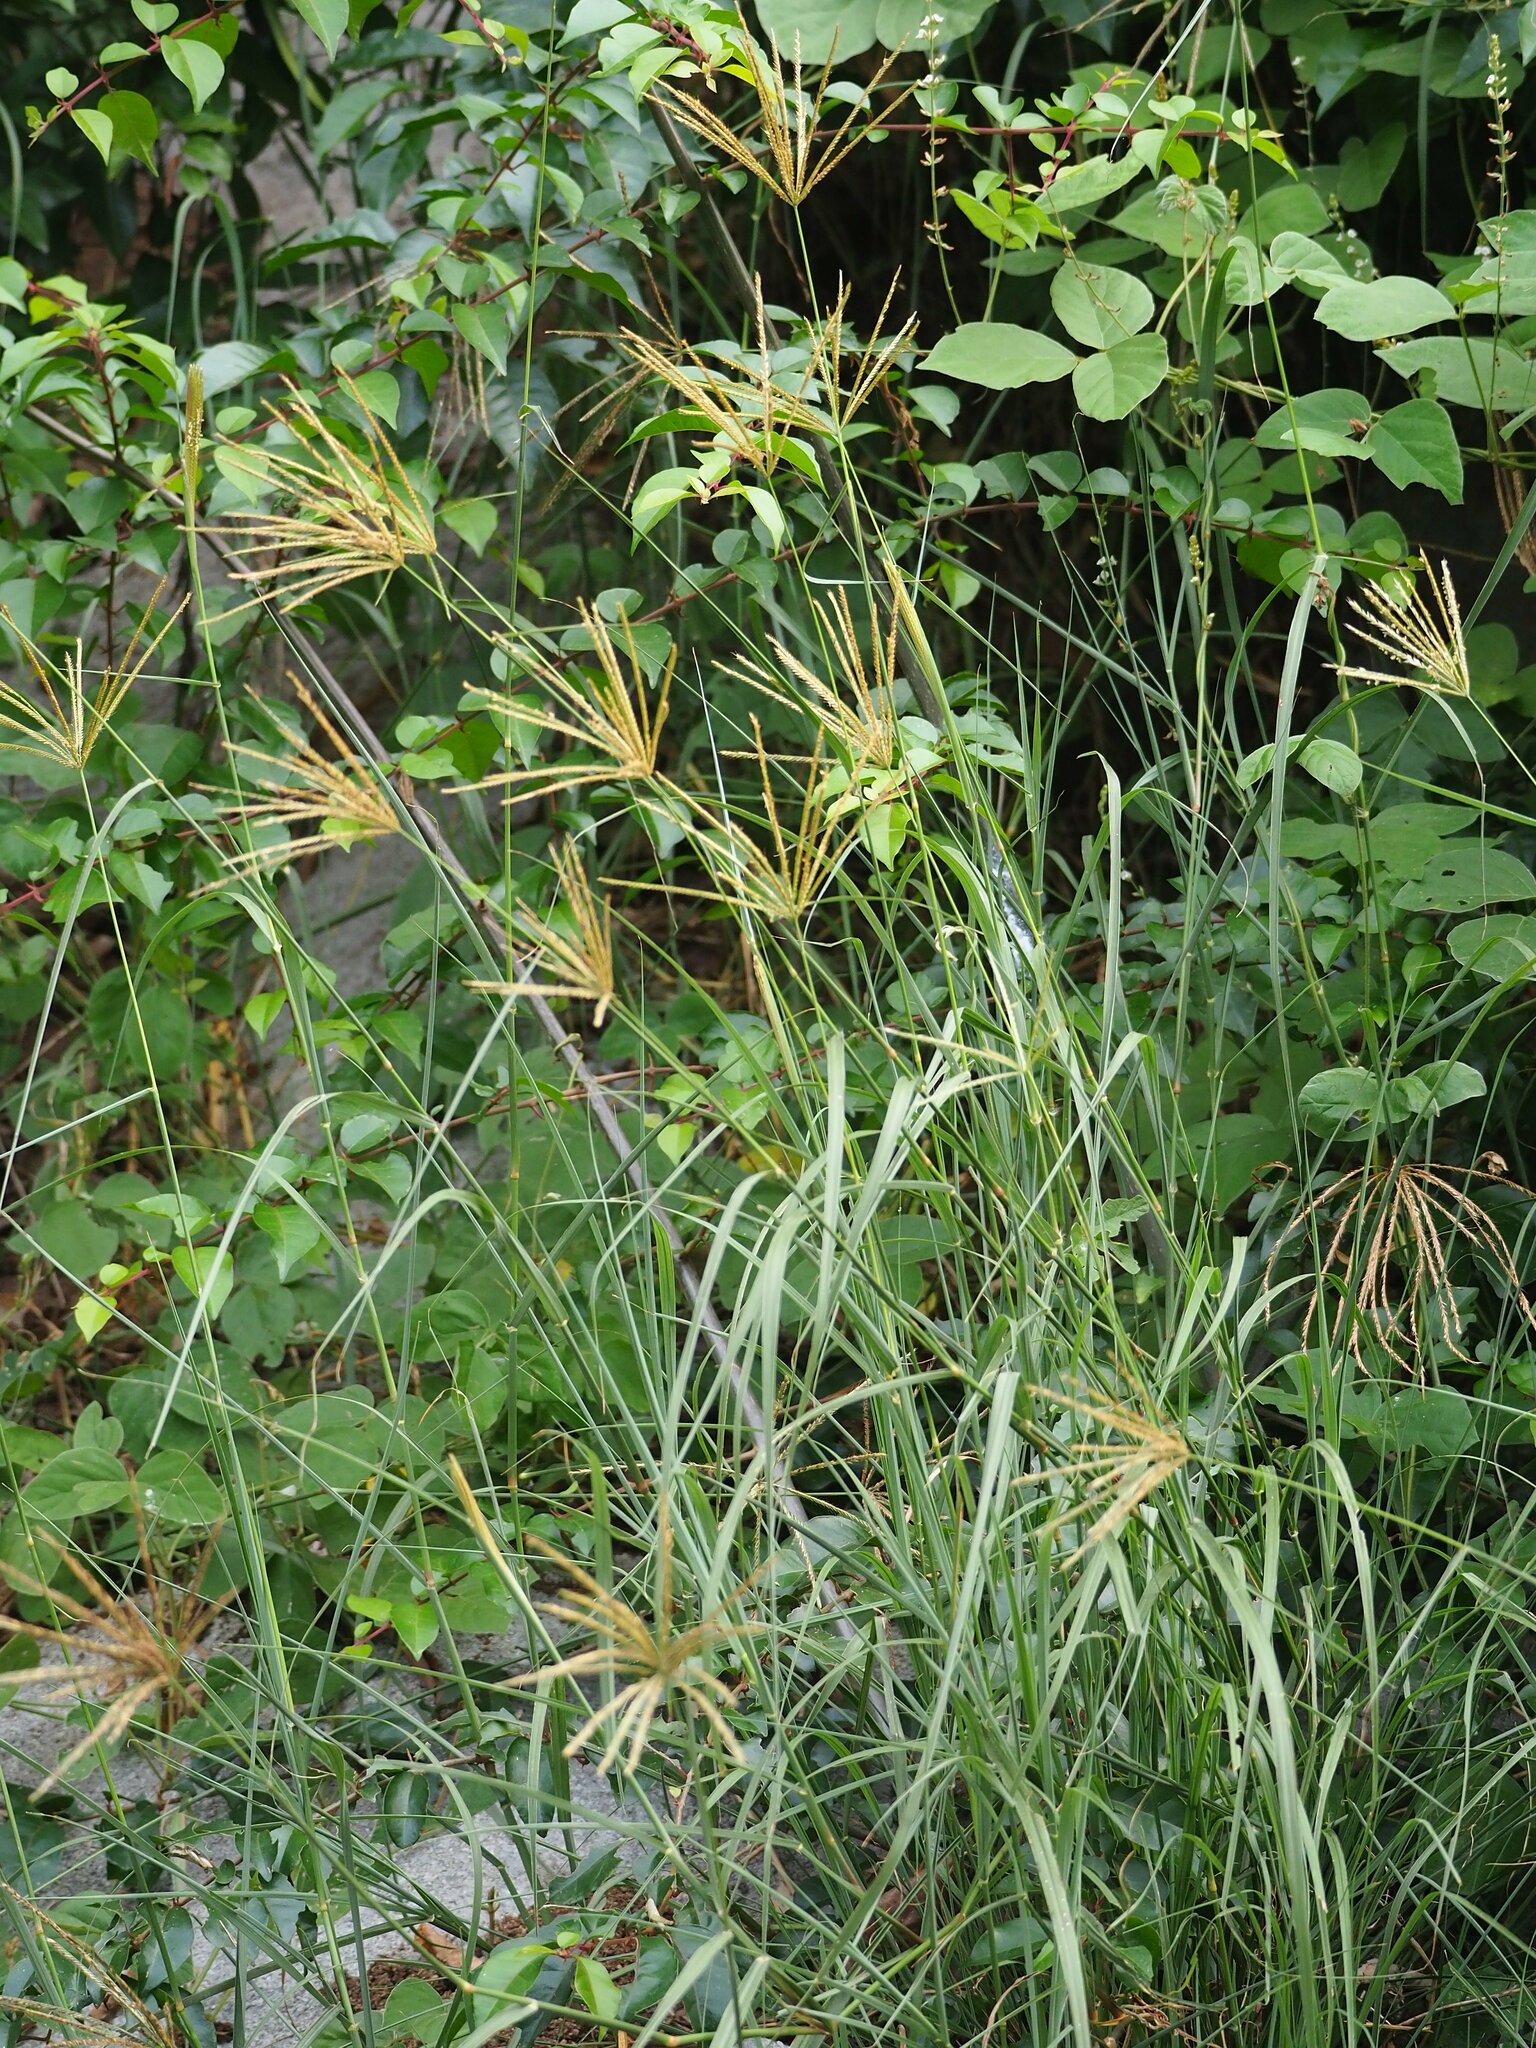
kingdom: Plantae
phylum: Tracheophyta
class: Liliopsida
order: Poales
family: Poaceae
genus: Chloris
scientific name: Chloris gayana
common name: Rhodes grass
